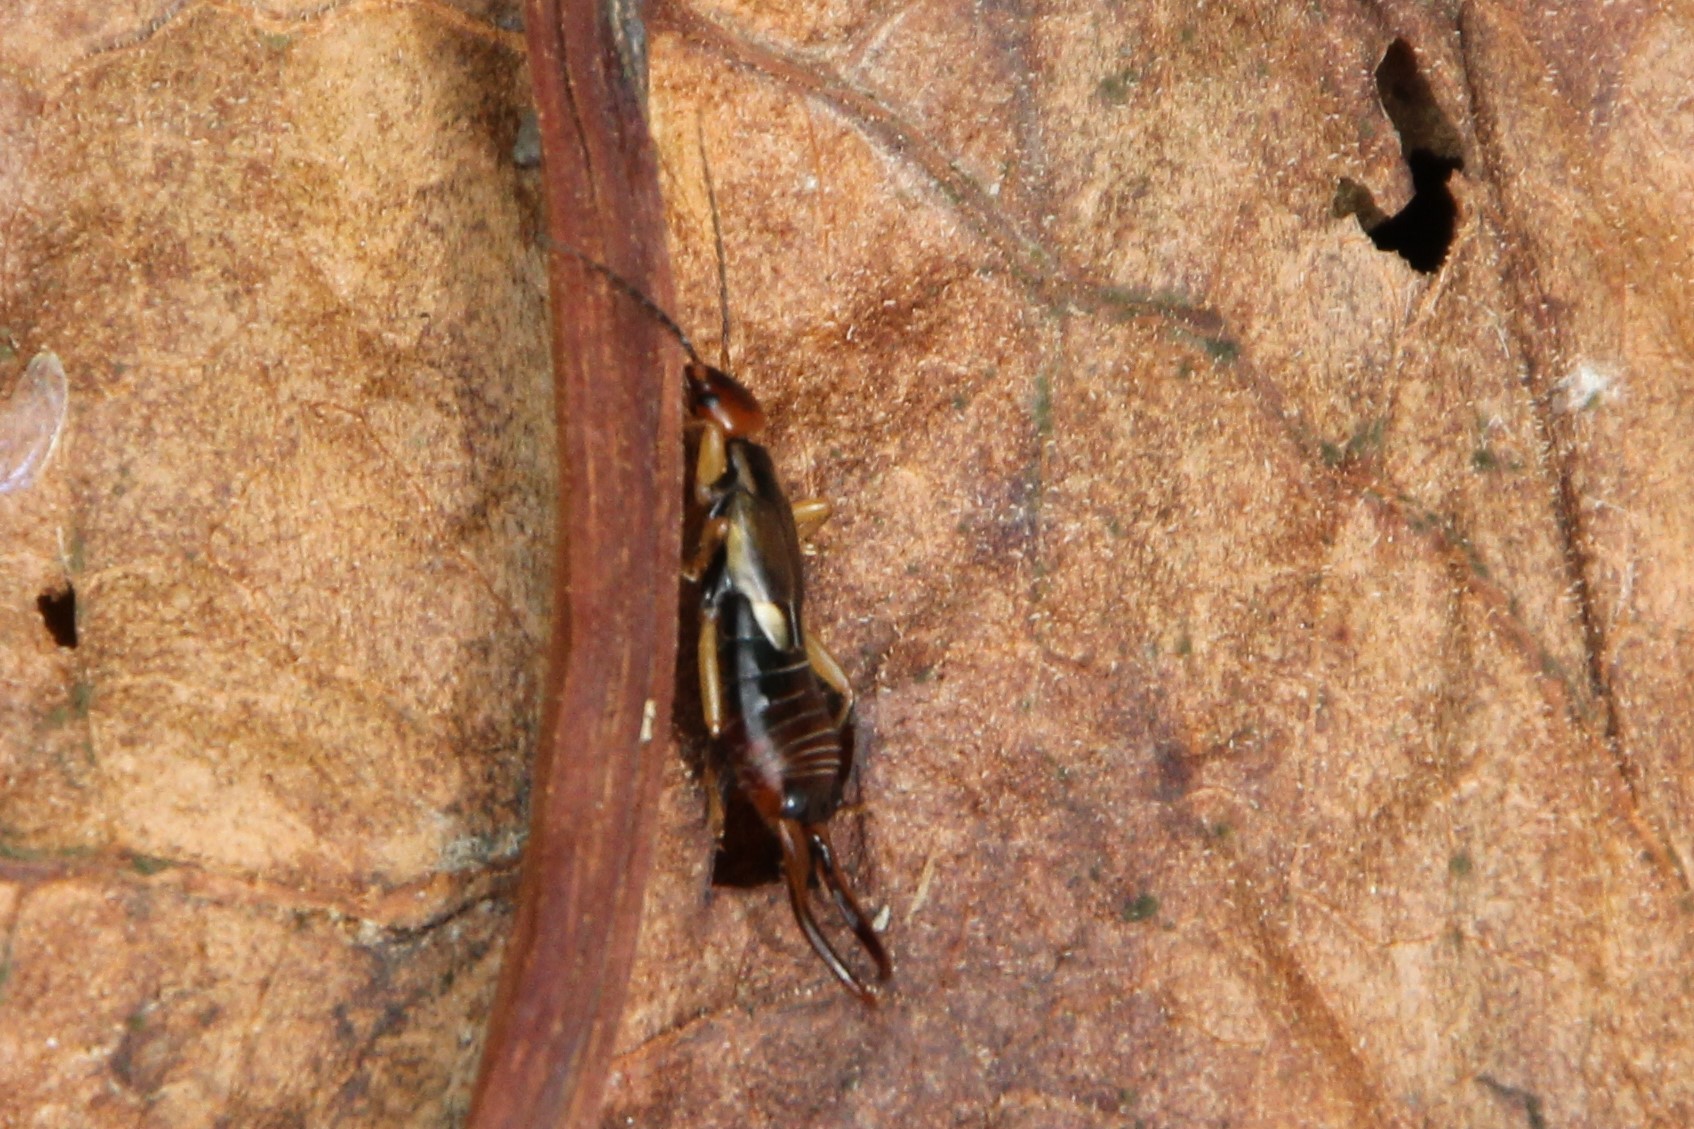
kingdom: Animalia
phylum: Arthropoda
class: Insecta
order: Dermaptera
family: Forficulidae
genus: Forficula
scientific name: Forficula
